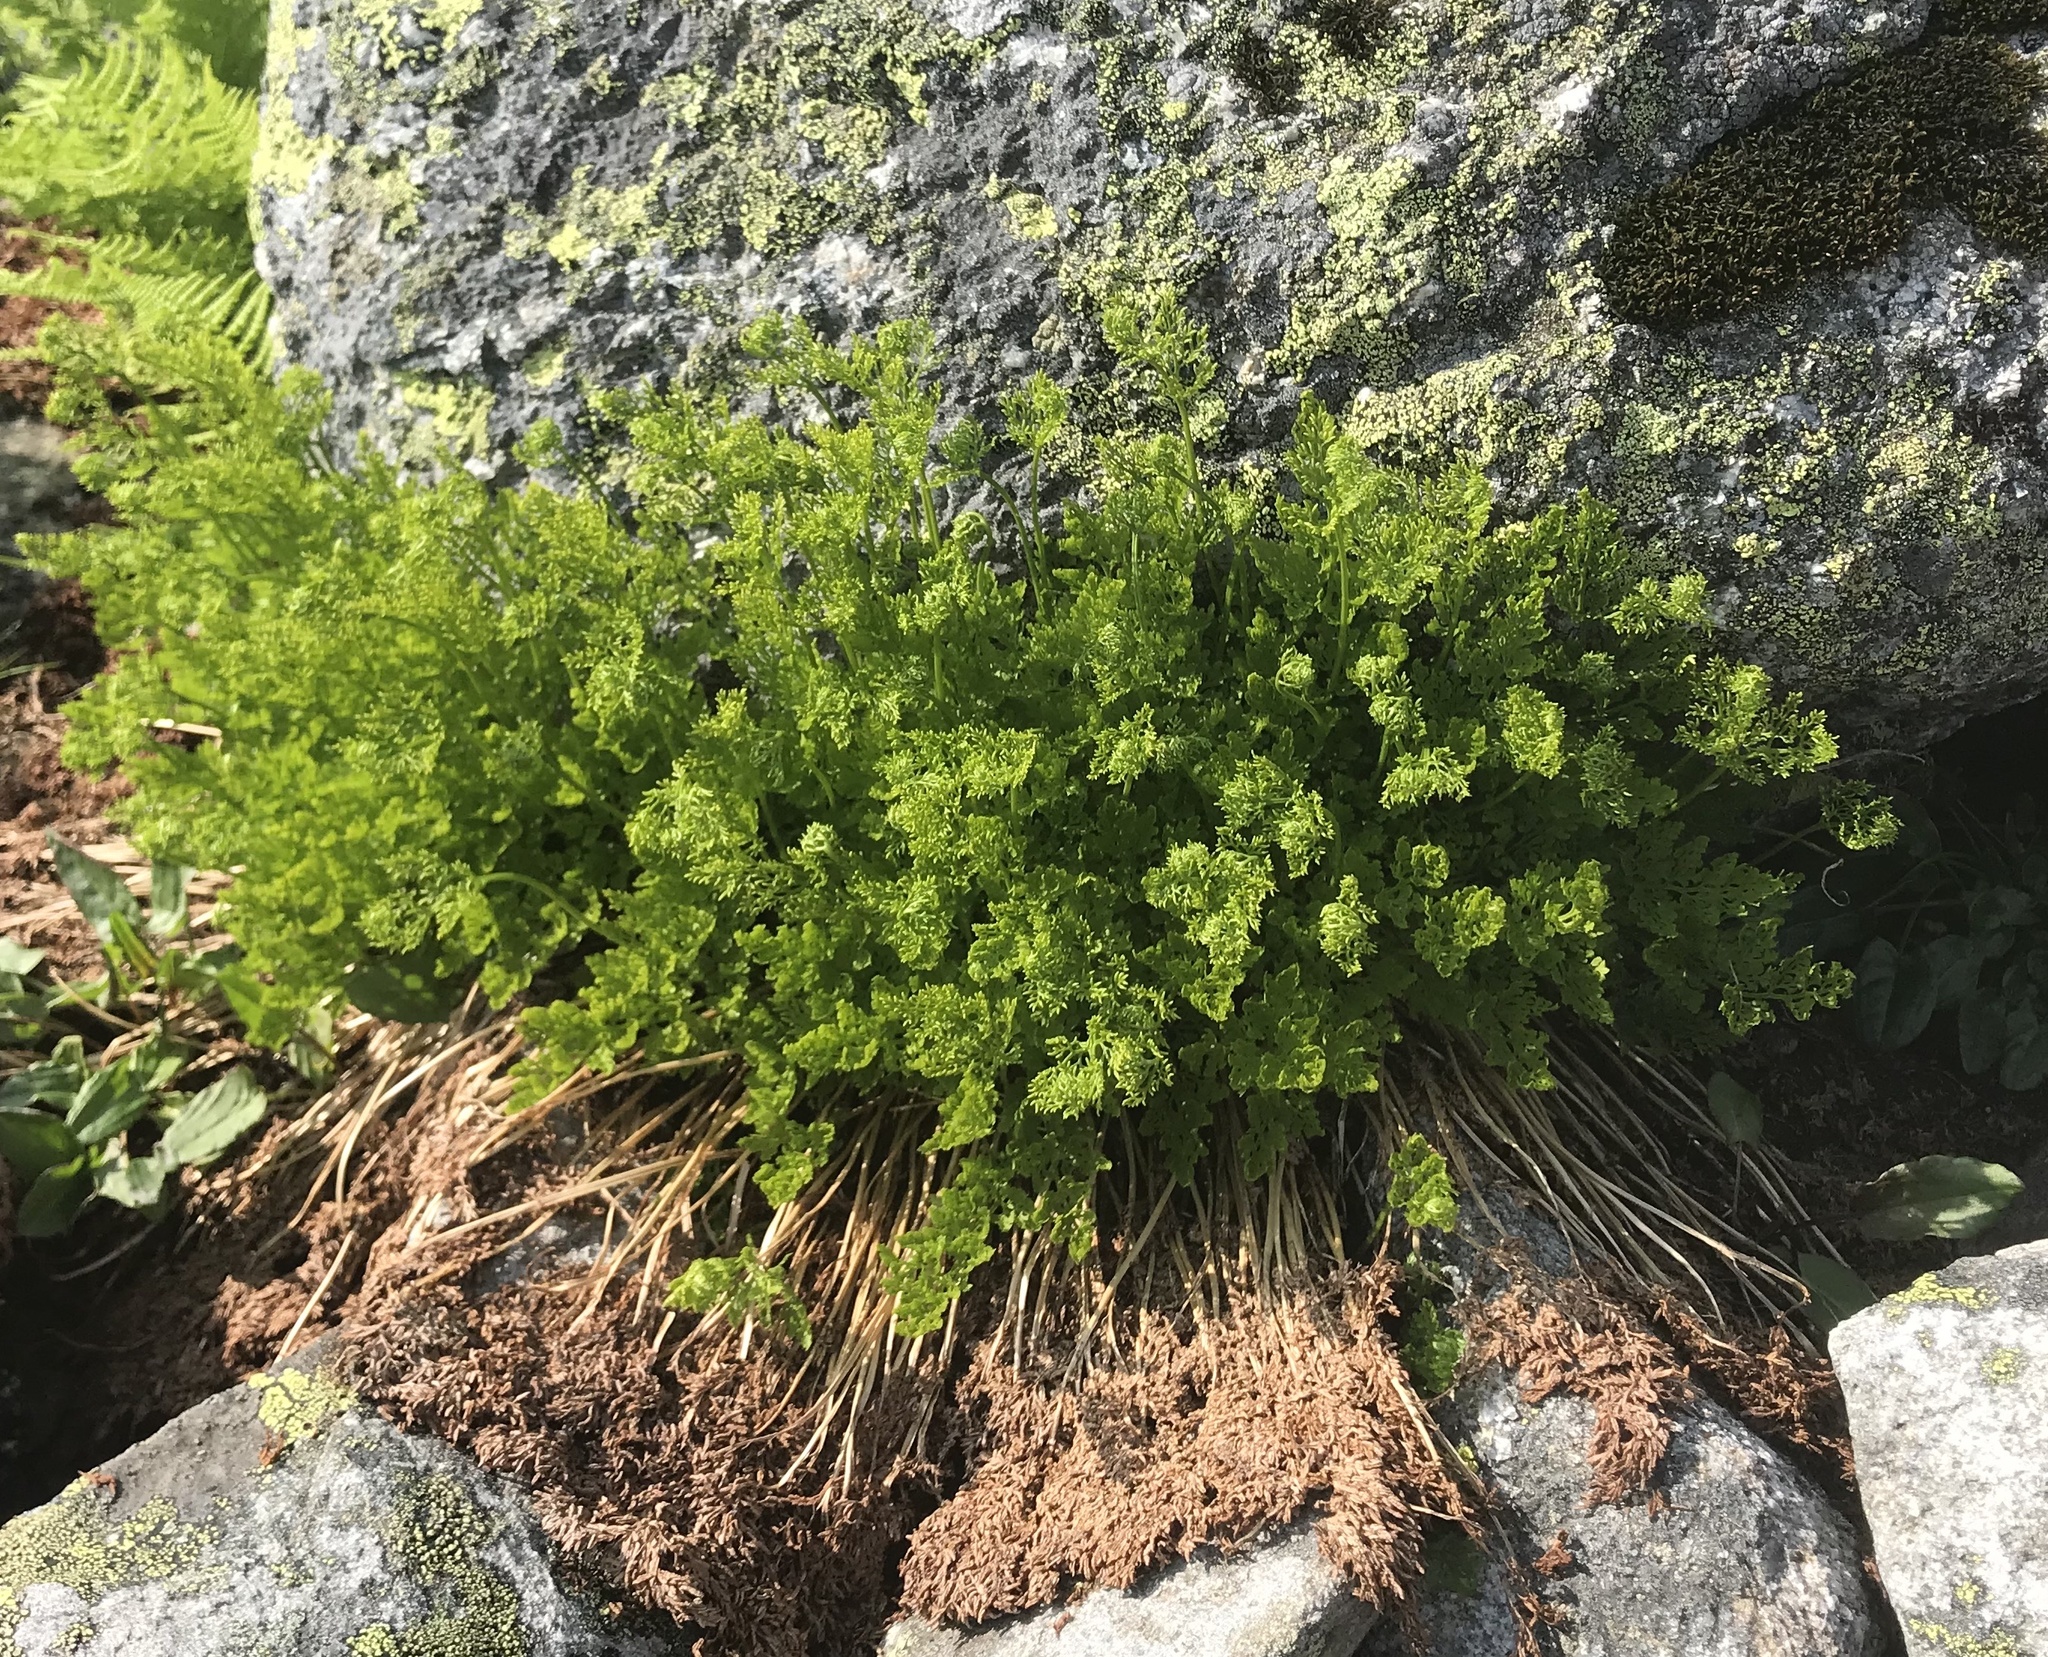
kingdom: Plantae
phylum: Tracheophyta
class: Polypodiopsida
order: Polypodiales
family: Pteridaceae
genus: Cryptogramma
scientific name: Cryptogramma crispa
